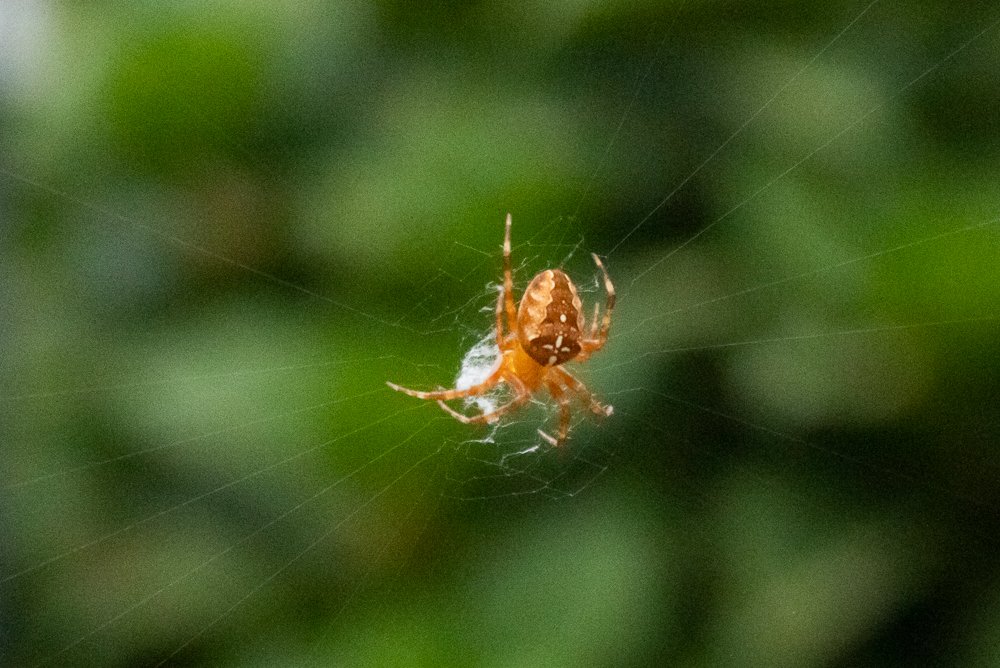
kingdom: Animalia
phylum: Arthropoda
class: Arachnida
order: Araneae
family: Araneidae
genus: Araneus
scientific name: Araneus diadematus
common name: Cross orbweaver
